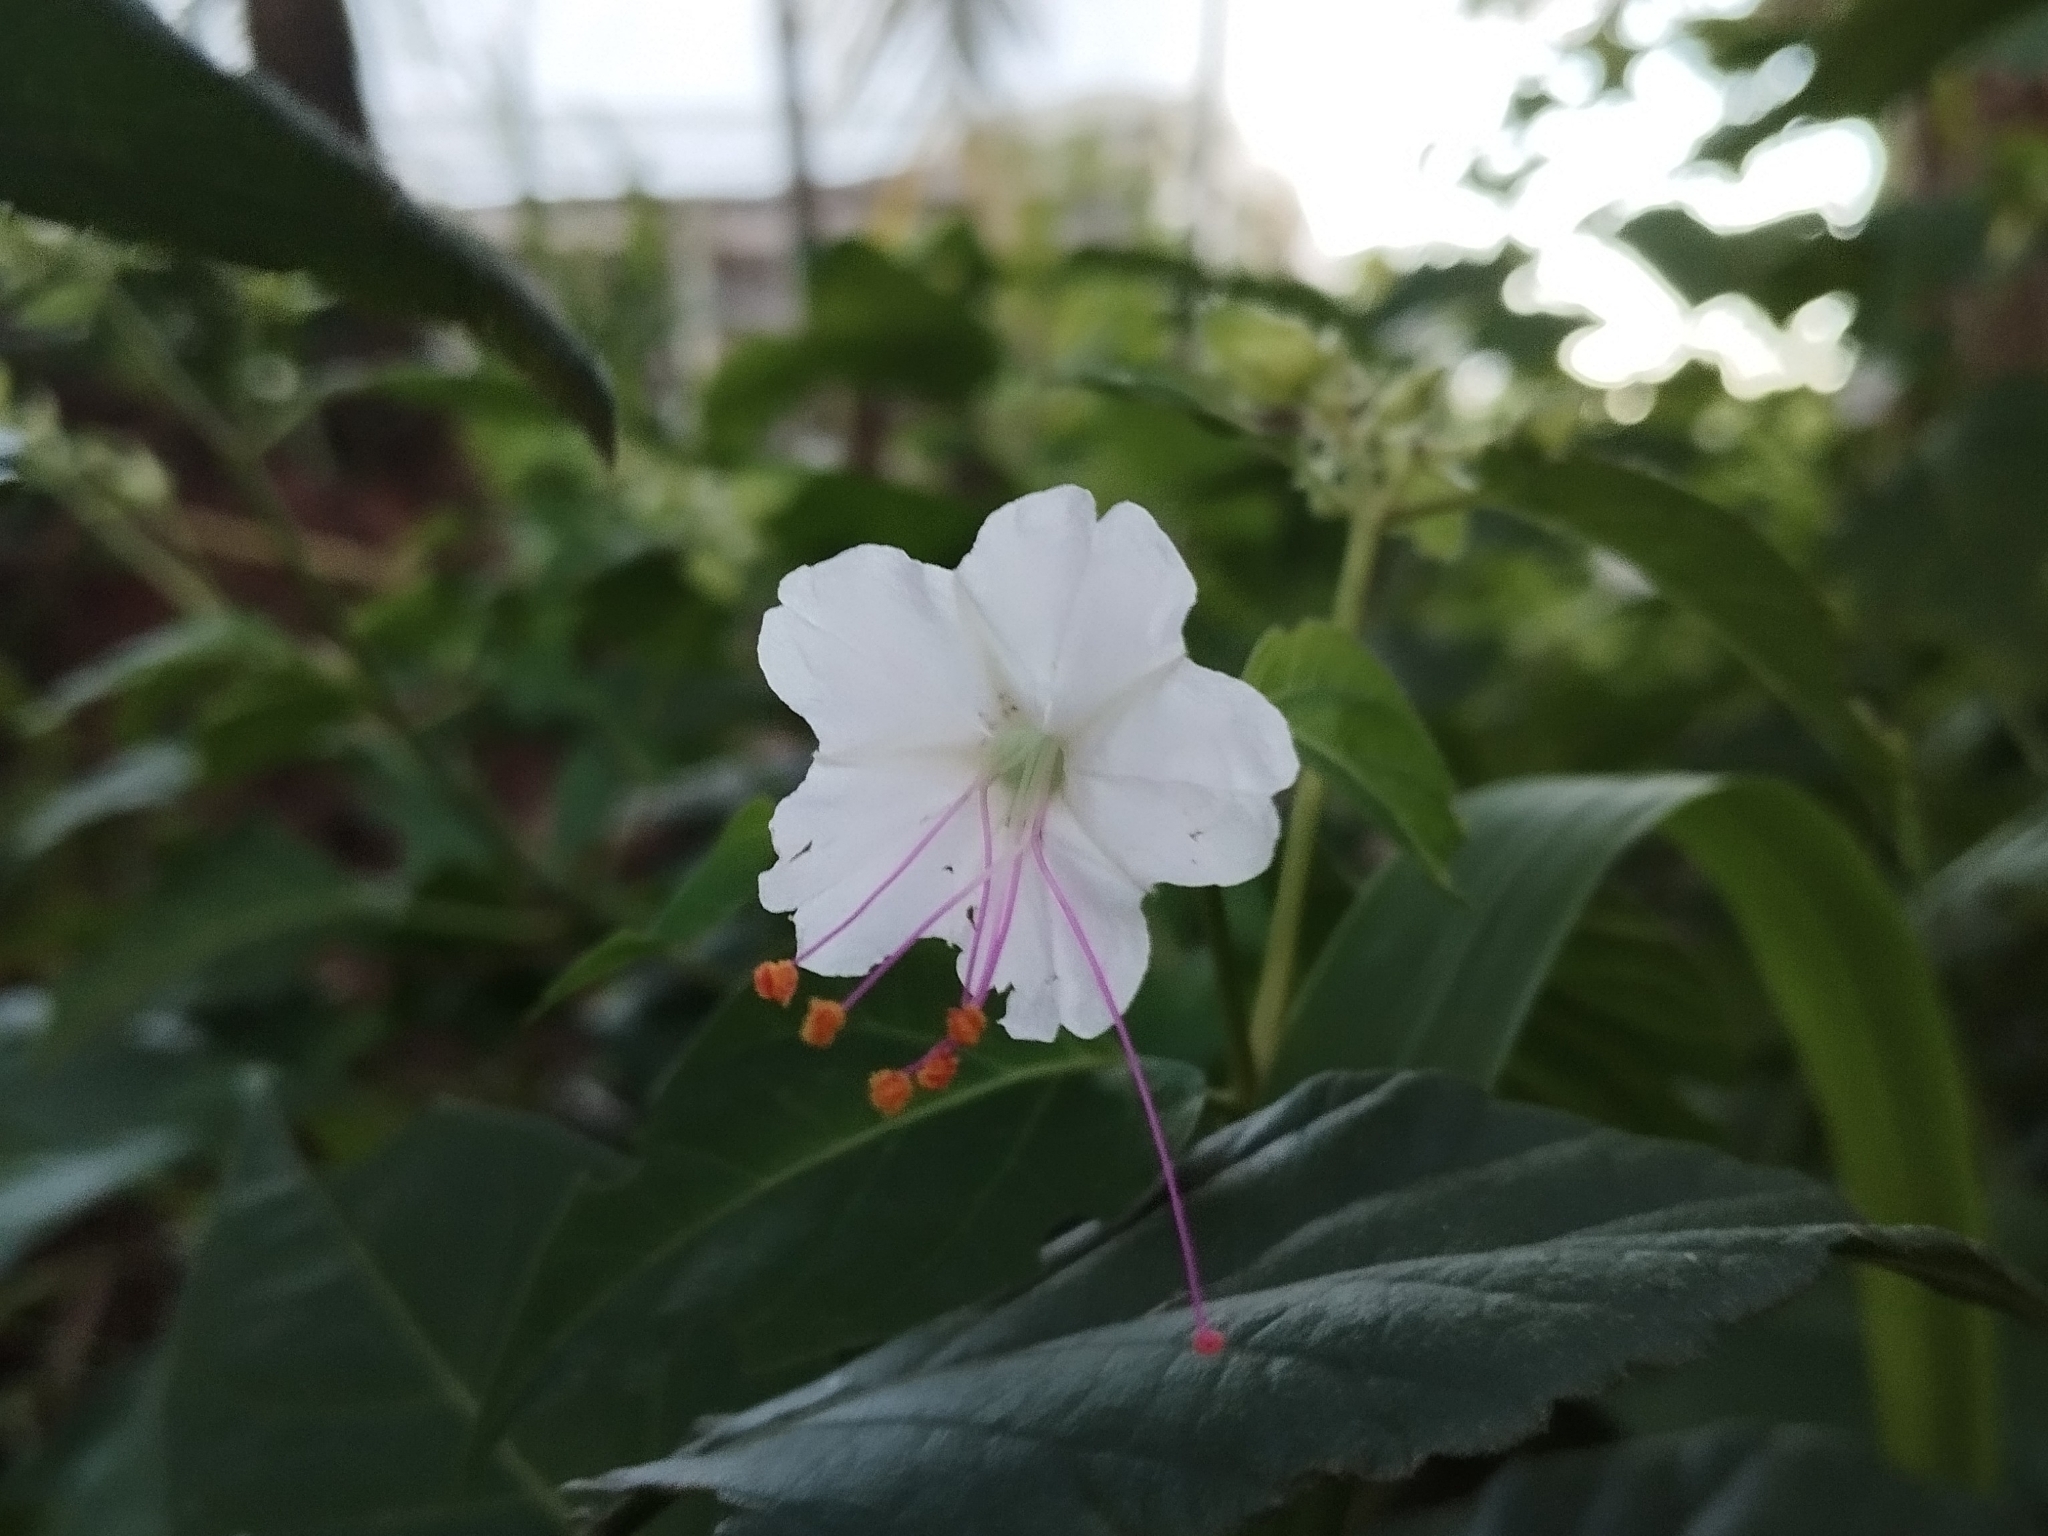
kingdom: Plantae
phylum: Tracheophyta
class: Magnoliopsida
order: Caryophyllales
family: Nyctaginaceae
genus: Mirabilis
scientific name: Mirabilis jalapa
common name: Marvel-of-peru
